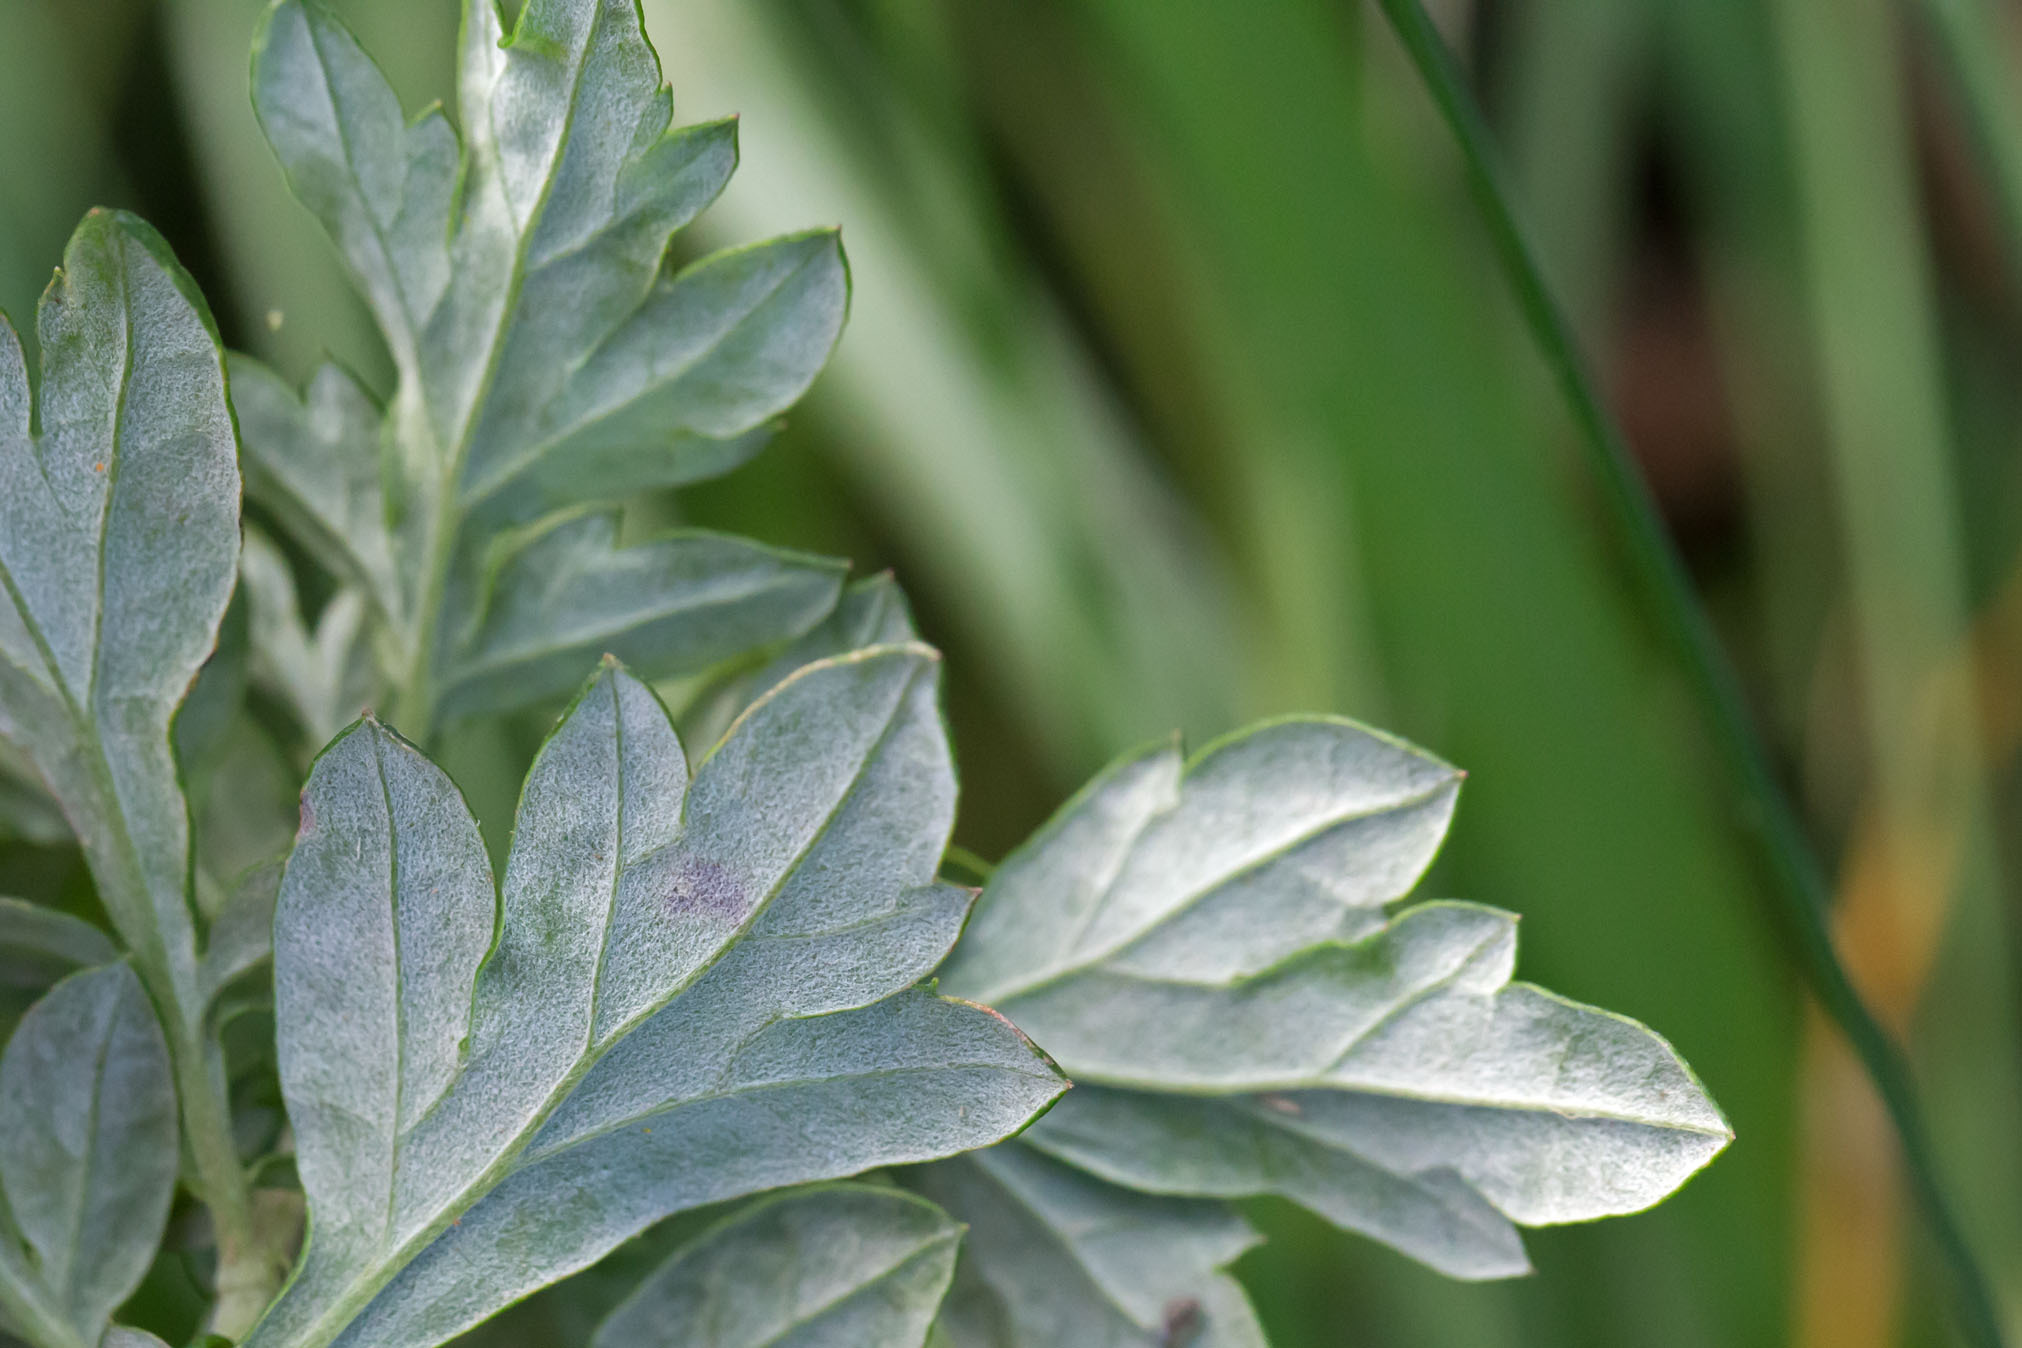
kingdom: Plantae
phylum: Tracheophyta
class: Magnoliopsida
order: Asterales
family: Asteraceae
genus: Artemisia
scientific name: Artemisia vulgaris
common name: Mugwort
